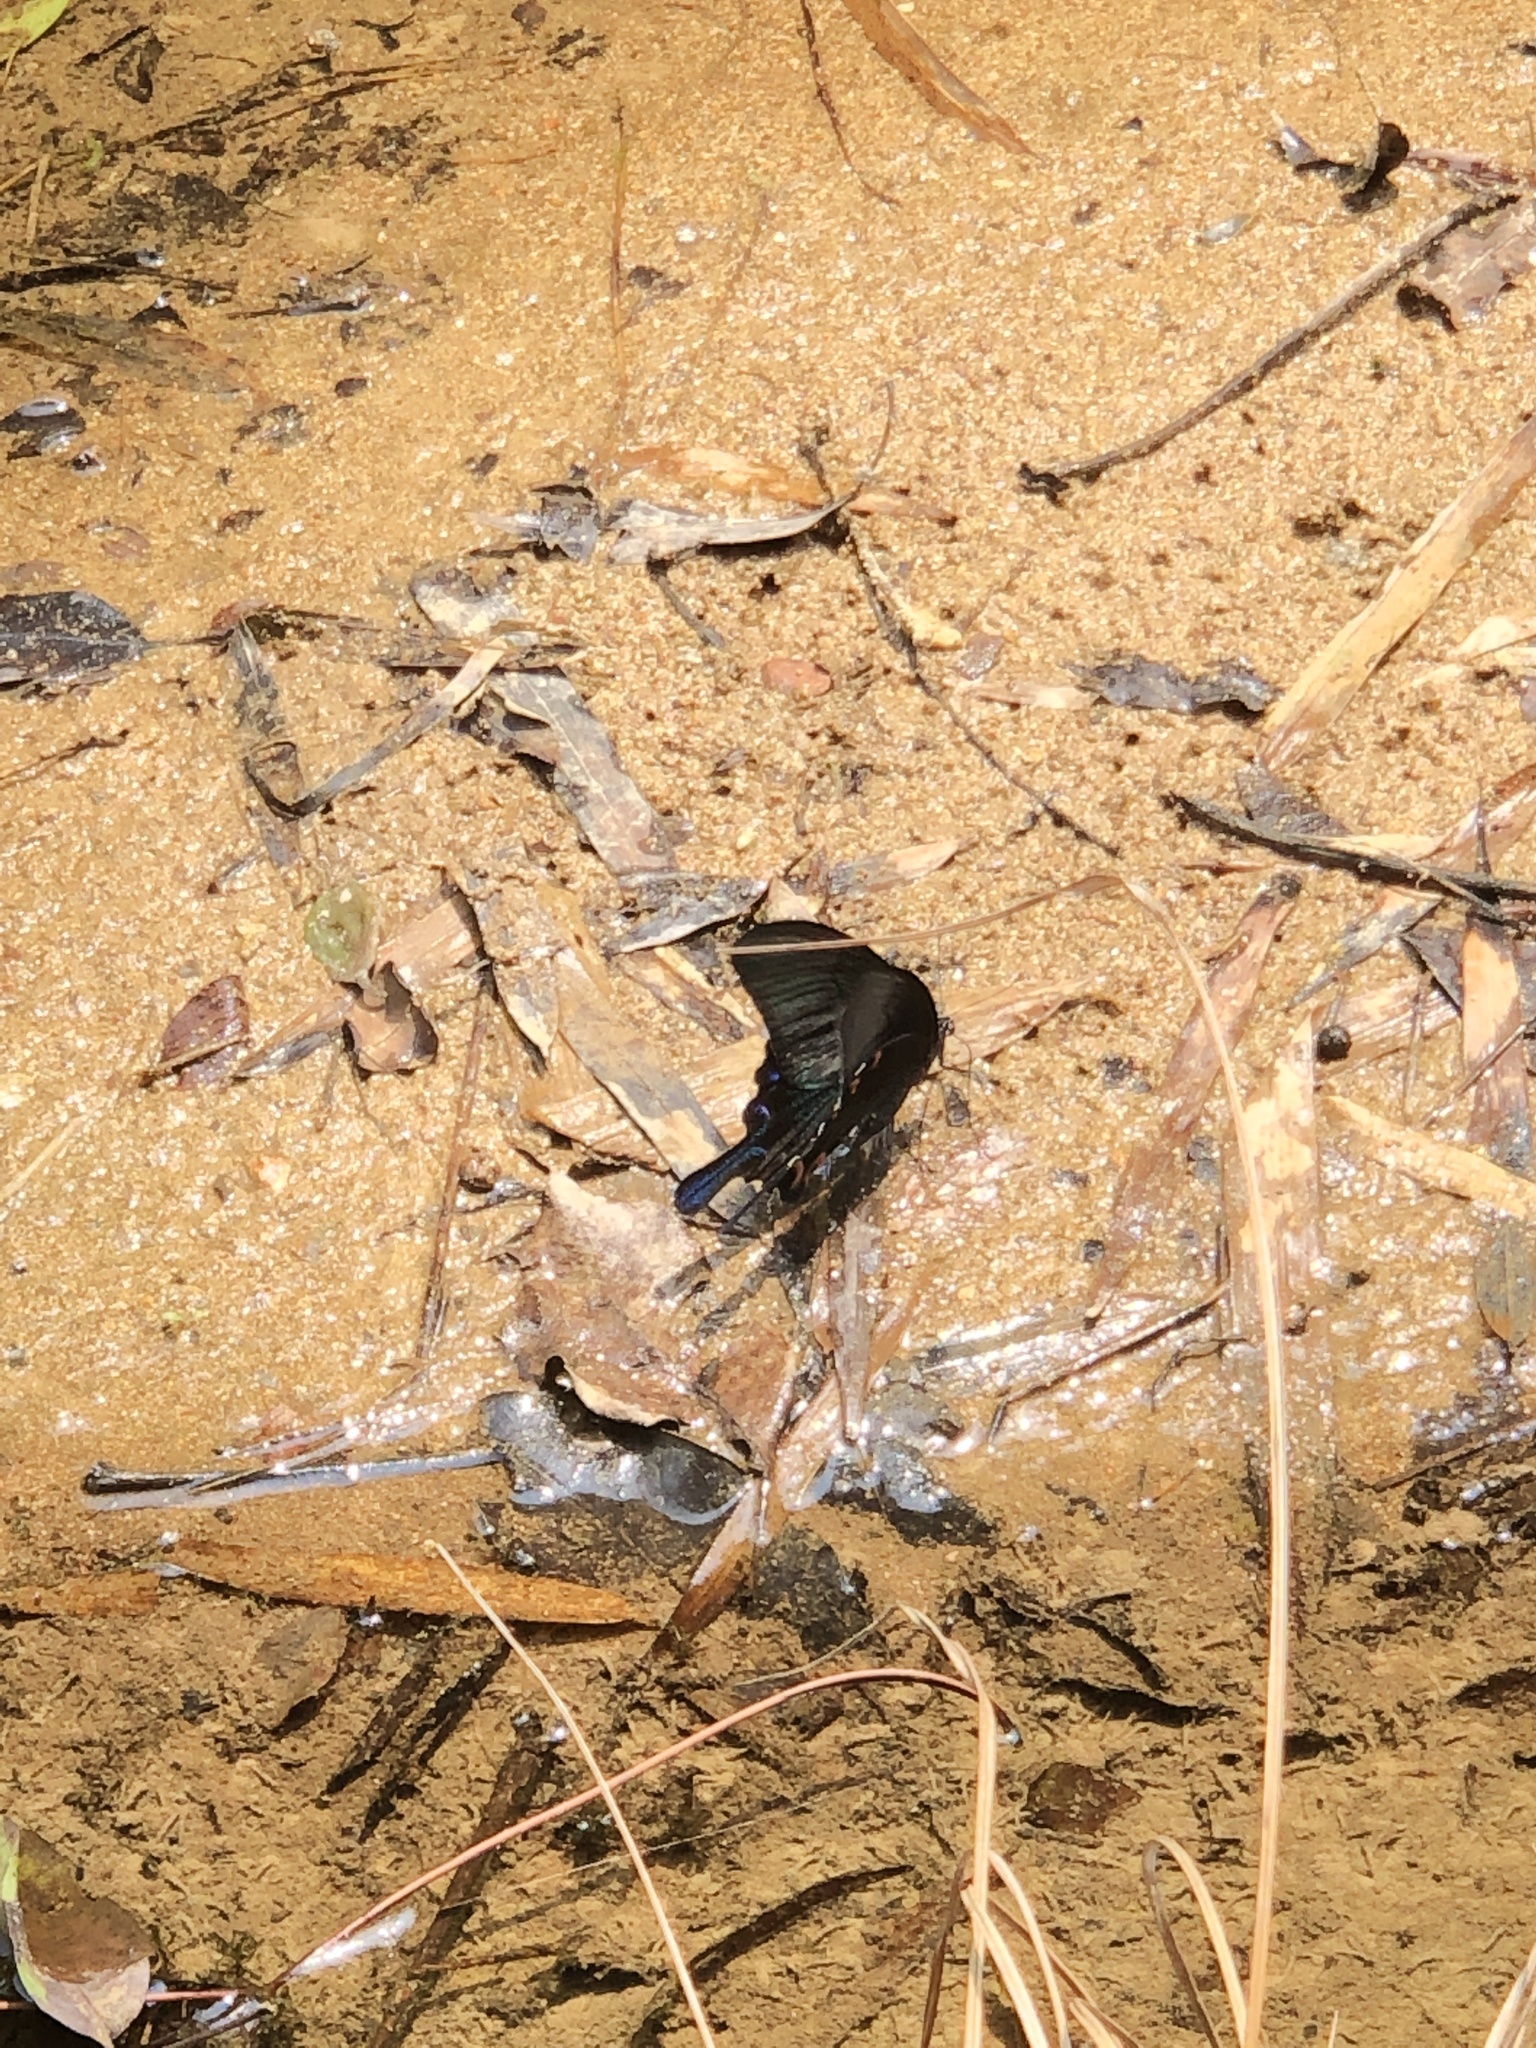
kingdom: Animalia
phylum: Arthropoda
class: Insecta
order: Lepidoptera
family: Papilionidae
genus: Papilio
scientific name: Papilio bianor
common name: Common peacock
